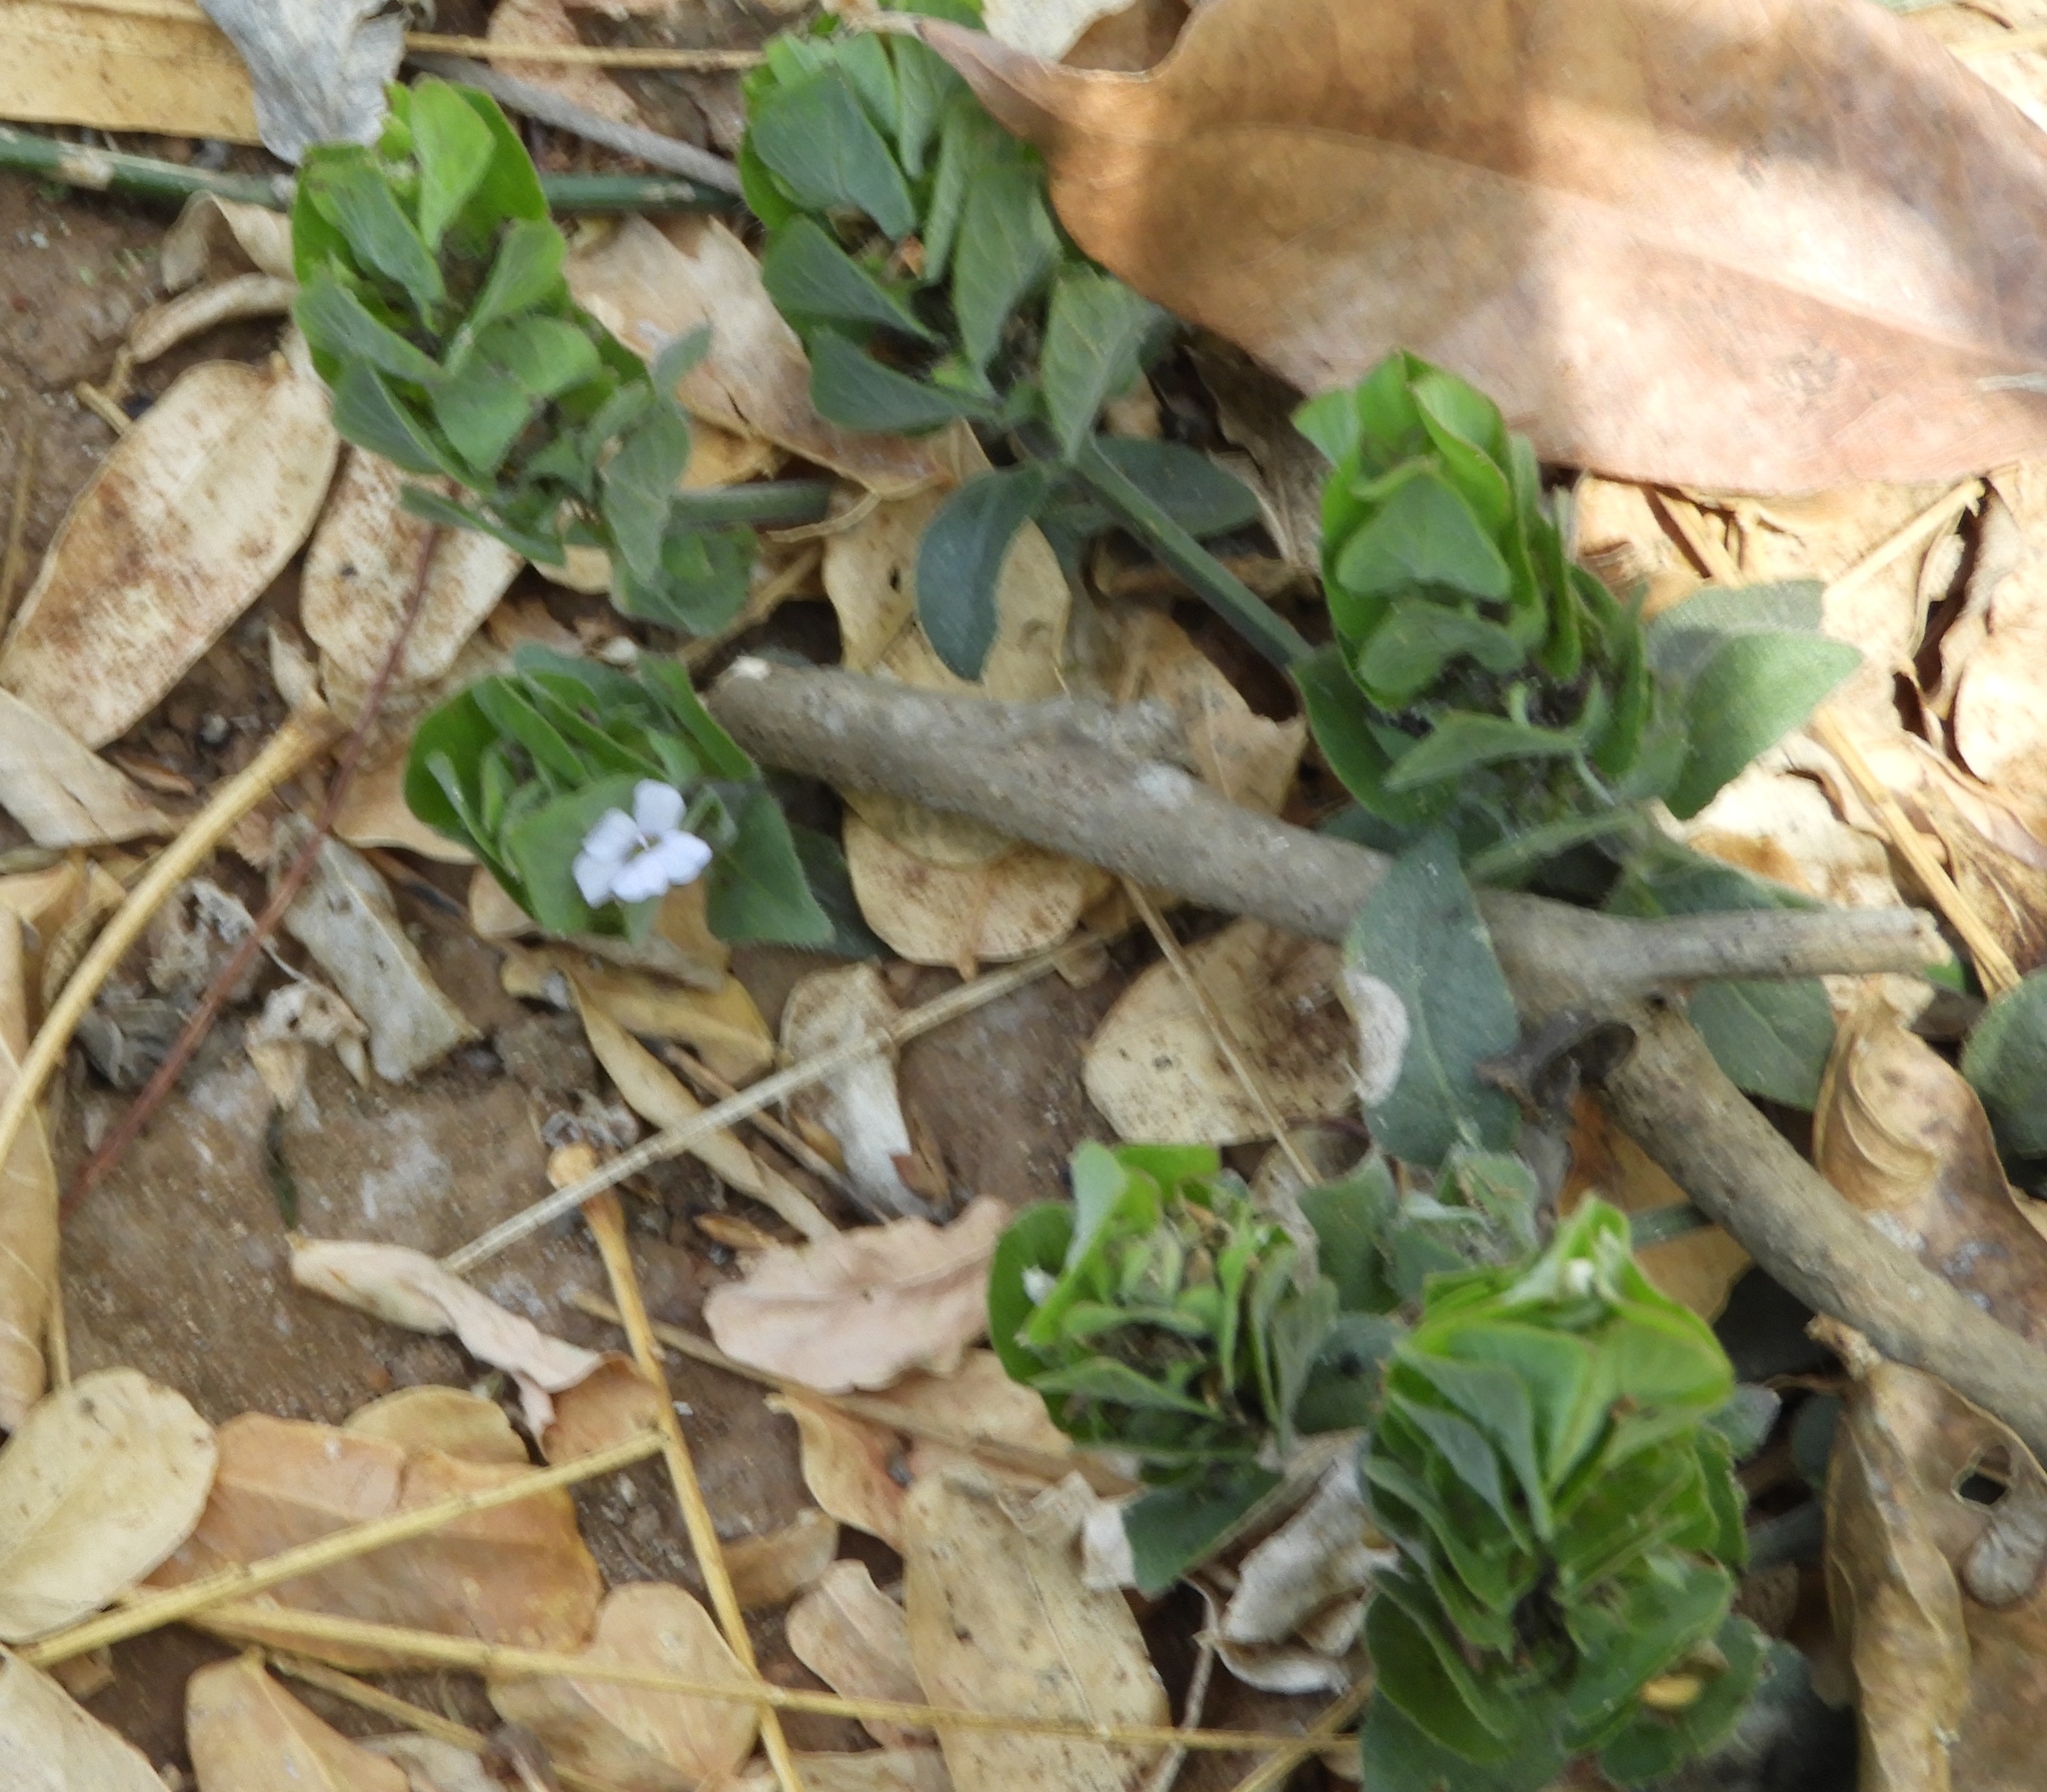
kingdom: Plantae
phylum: Tracheophyta
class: Magnoliopsida
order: Lamiales
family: Acanthaceae
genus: Ruellia
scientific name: Ruellia blechum
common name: Browne's blechum
